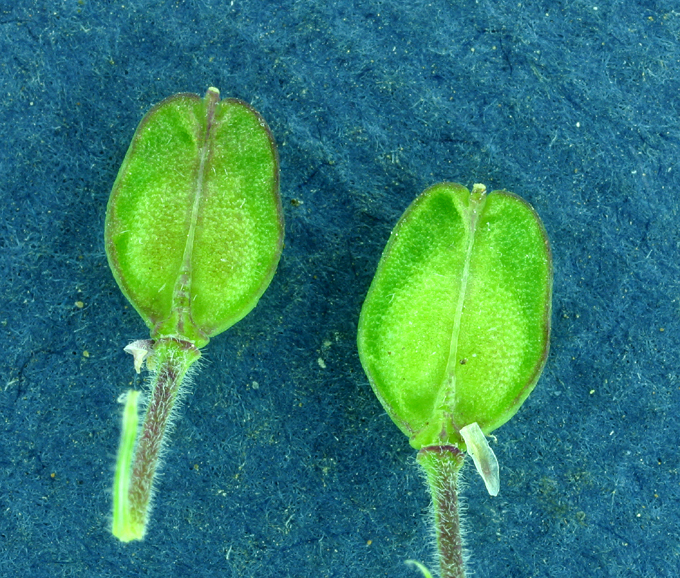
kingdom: Plantae
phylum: Tracheophyta
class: Magnoliopsida
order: Brassicales
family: Brassicaceae
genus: Lepidium
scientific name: Lepidium campestre
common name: Field pepperwort
